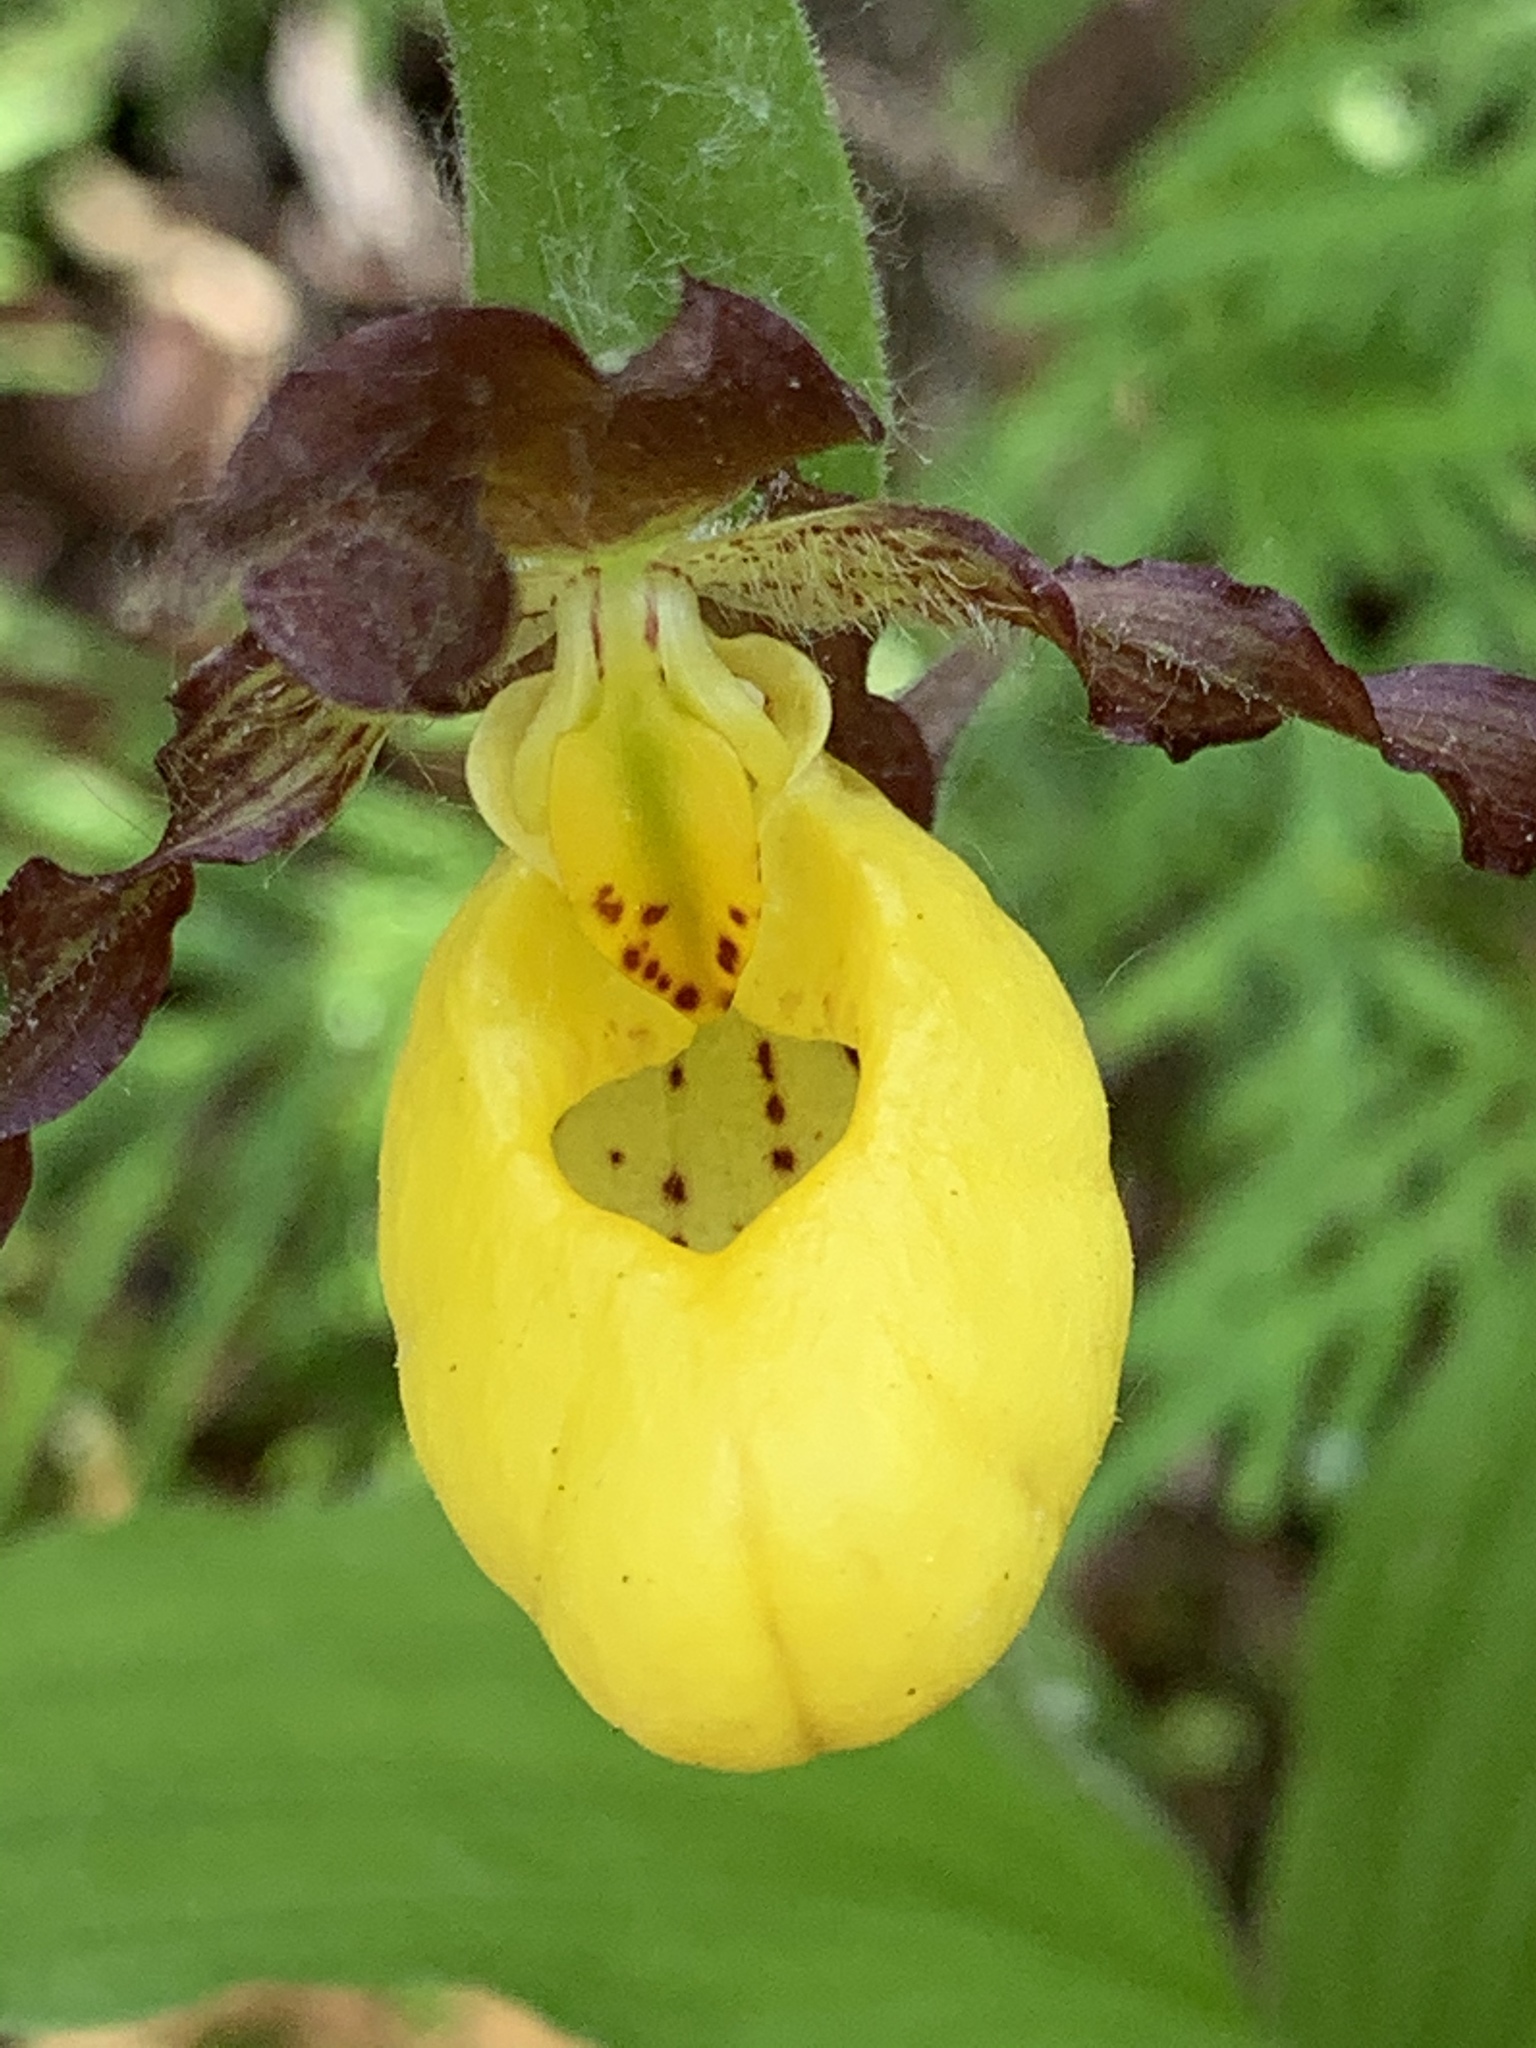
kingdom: Plantae
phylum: Tracheophyta
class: Liliopsida
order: Asparagales
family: Orchidaceae
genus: Cypripedium
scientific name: Cypripedium parviflorum
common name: American yellow lady's-slipper
